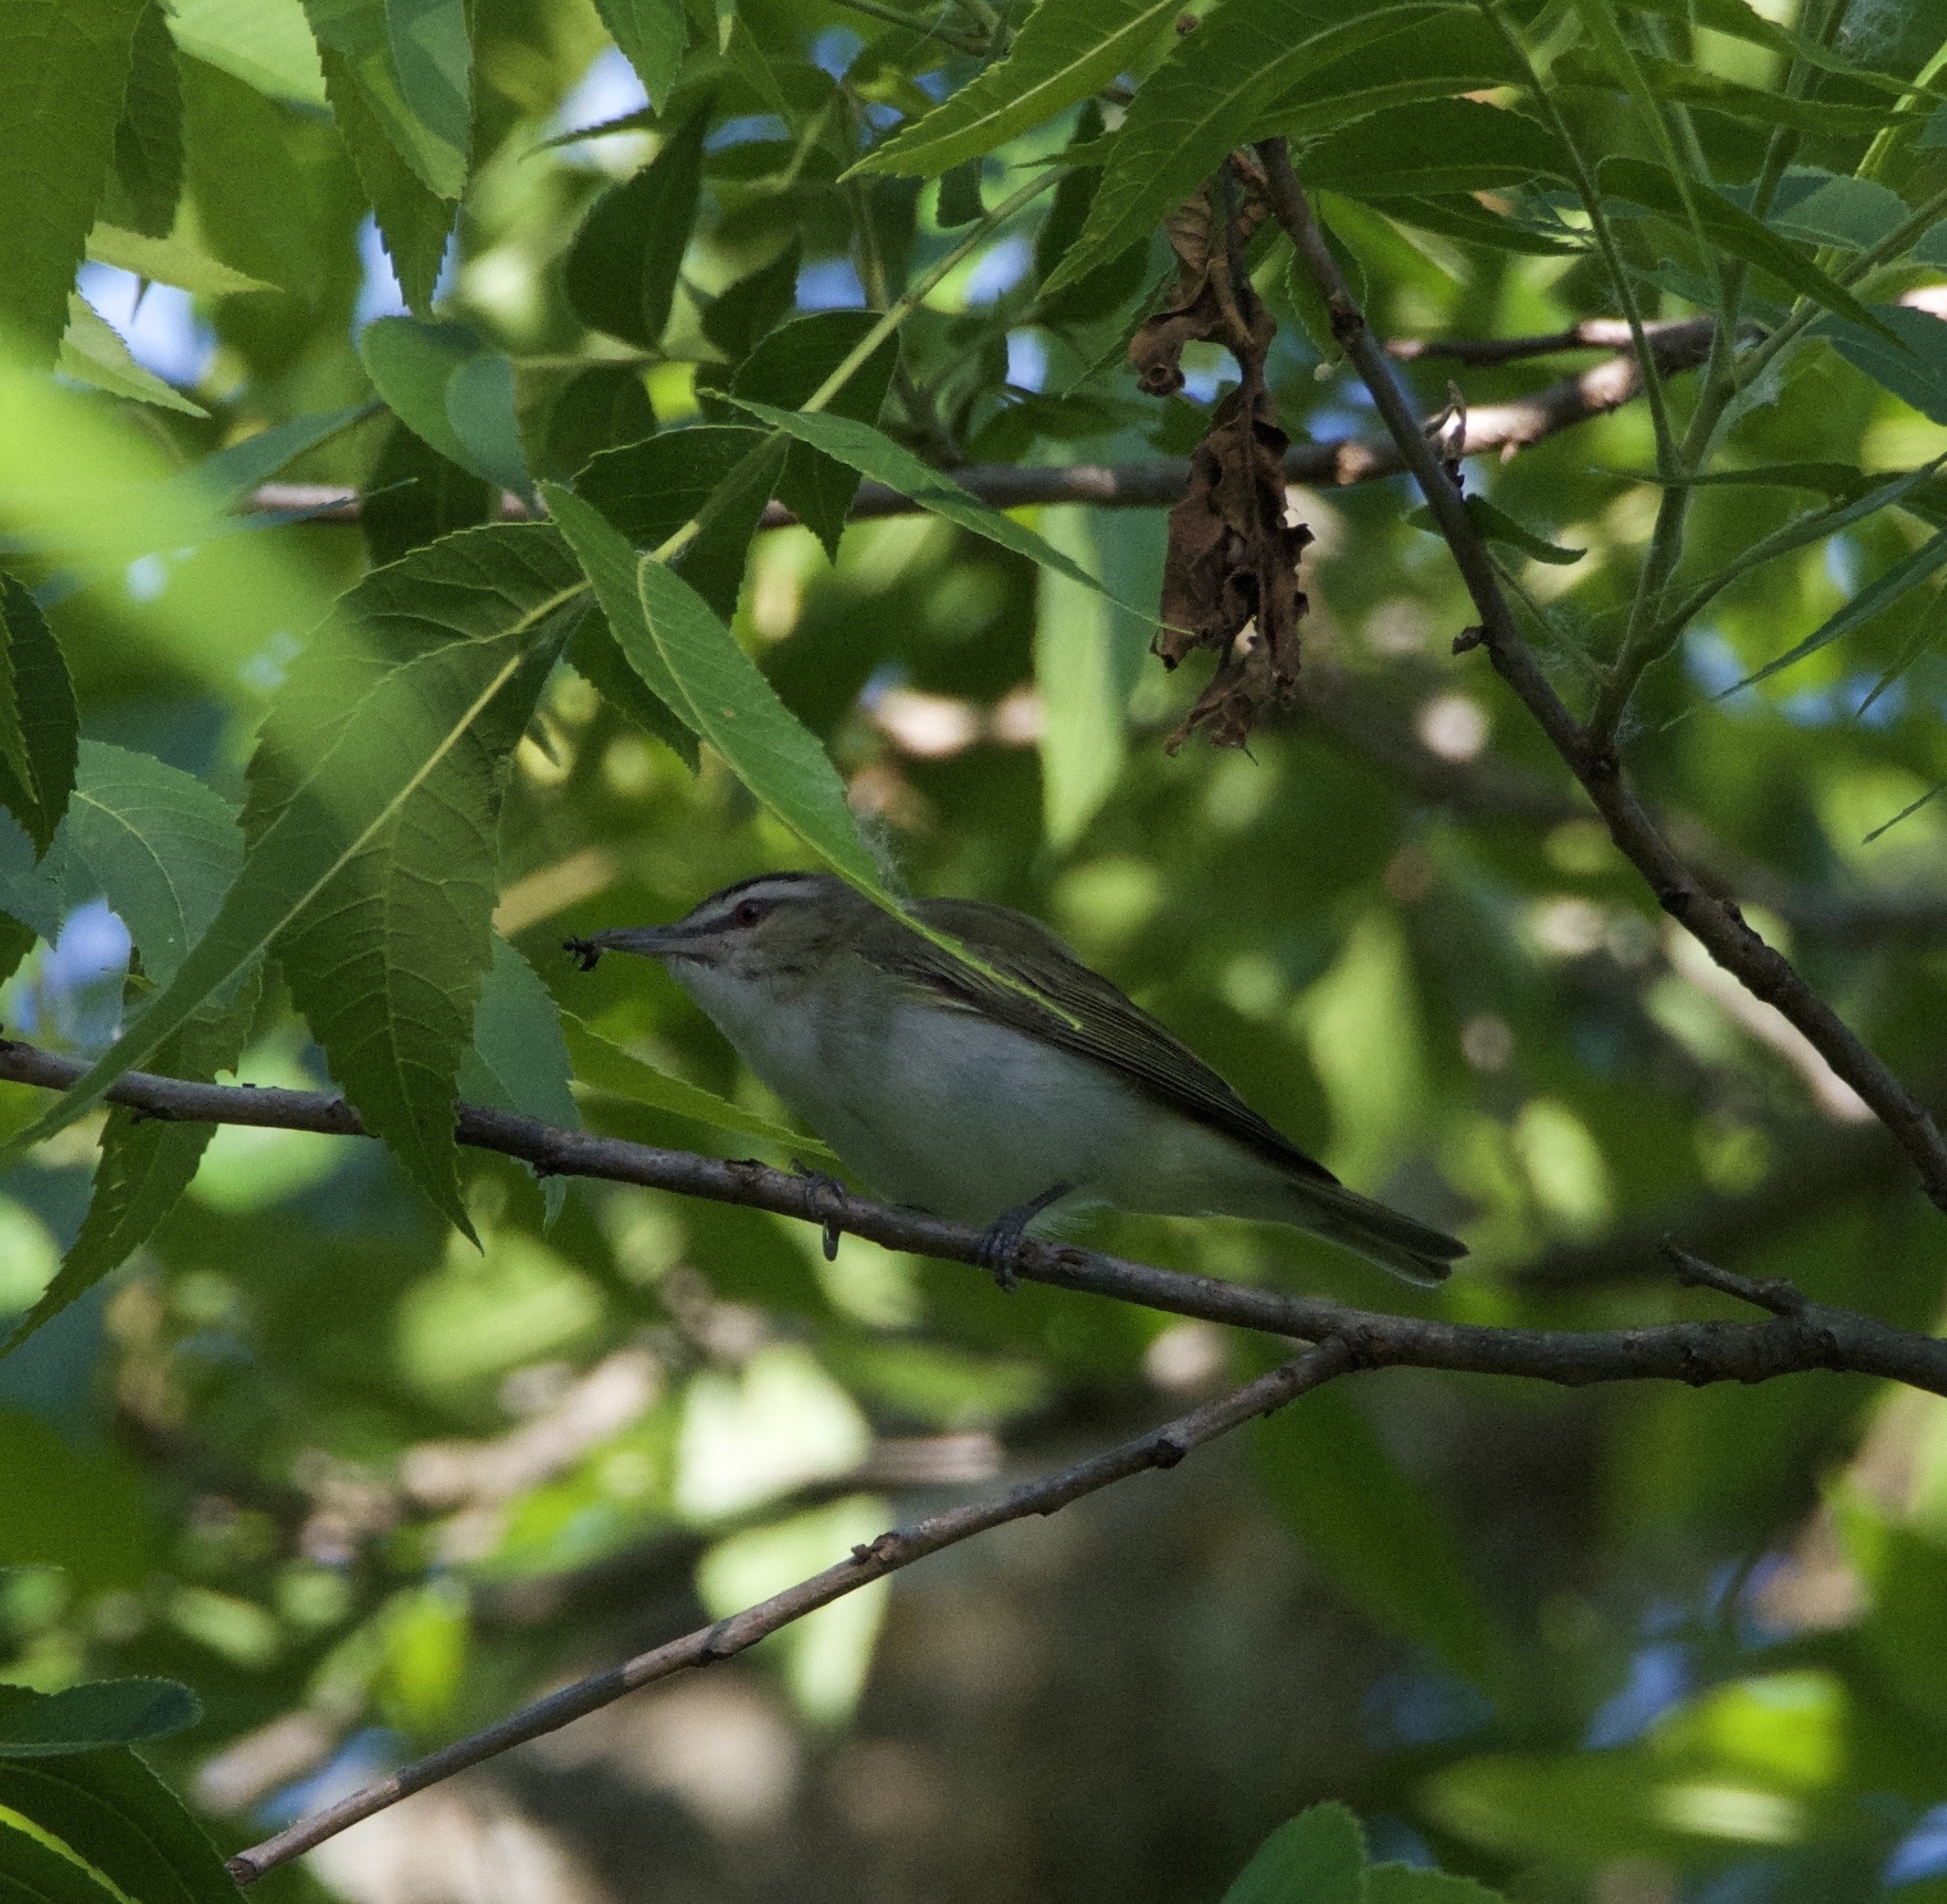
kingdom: Animalia
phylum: Chordata
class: Aves
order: Passeriformes
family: Vireonidae
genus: Vireo
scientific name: Vireo olivaceus
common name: Red-eyed vireo
